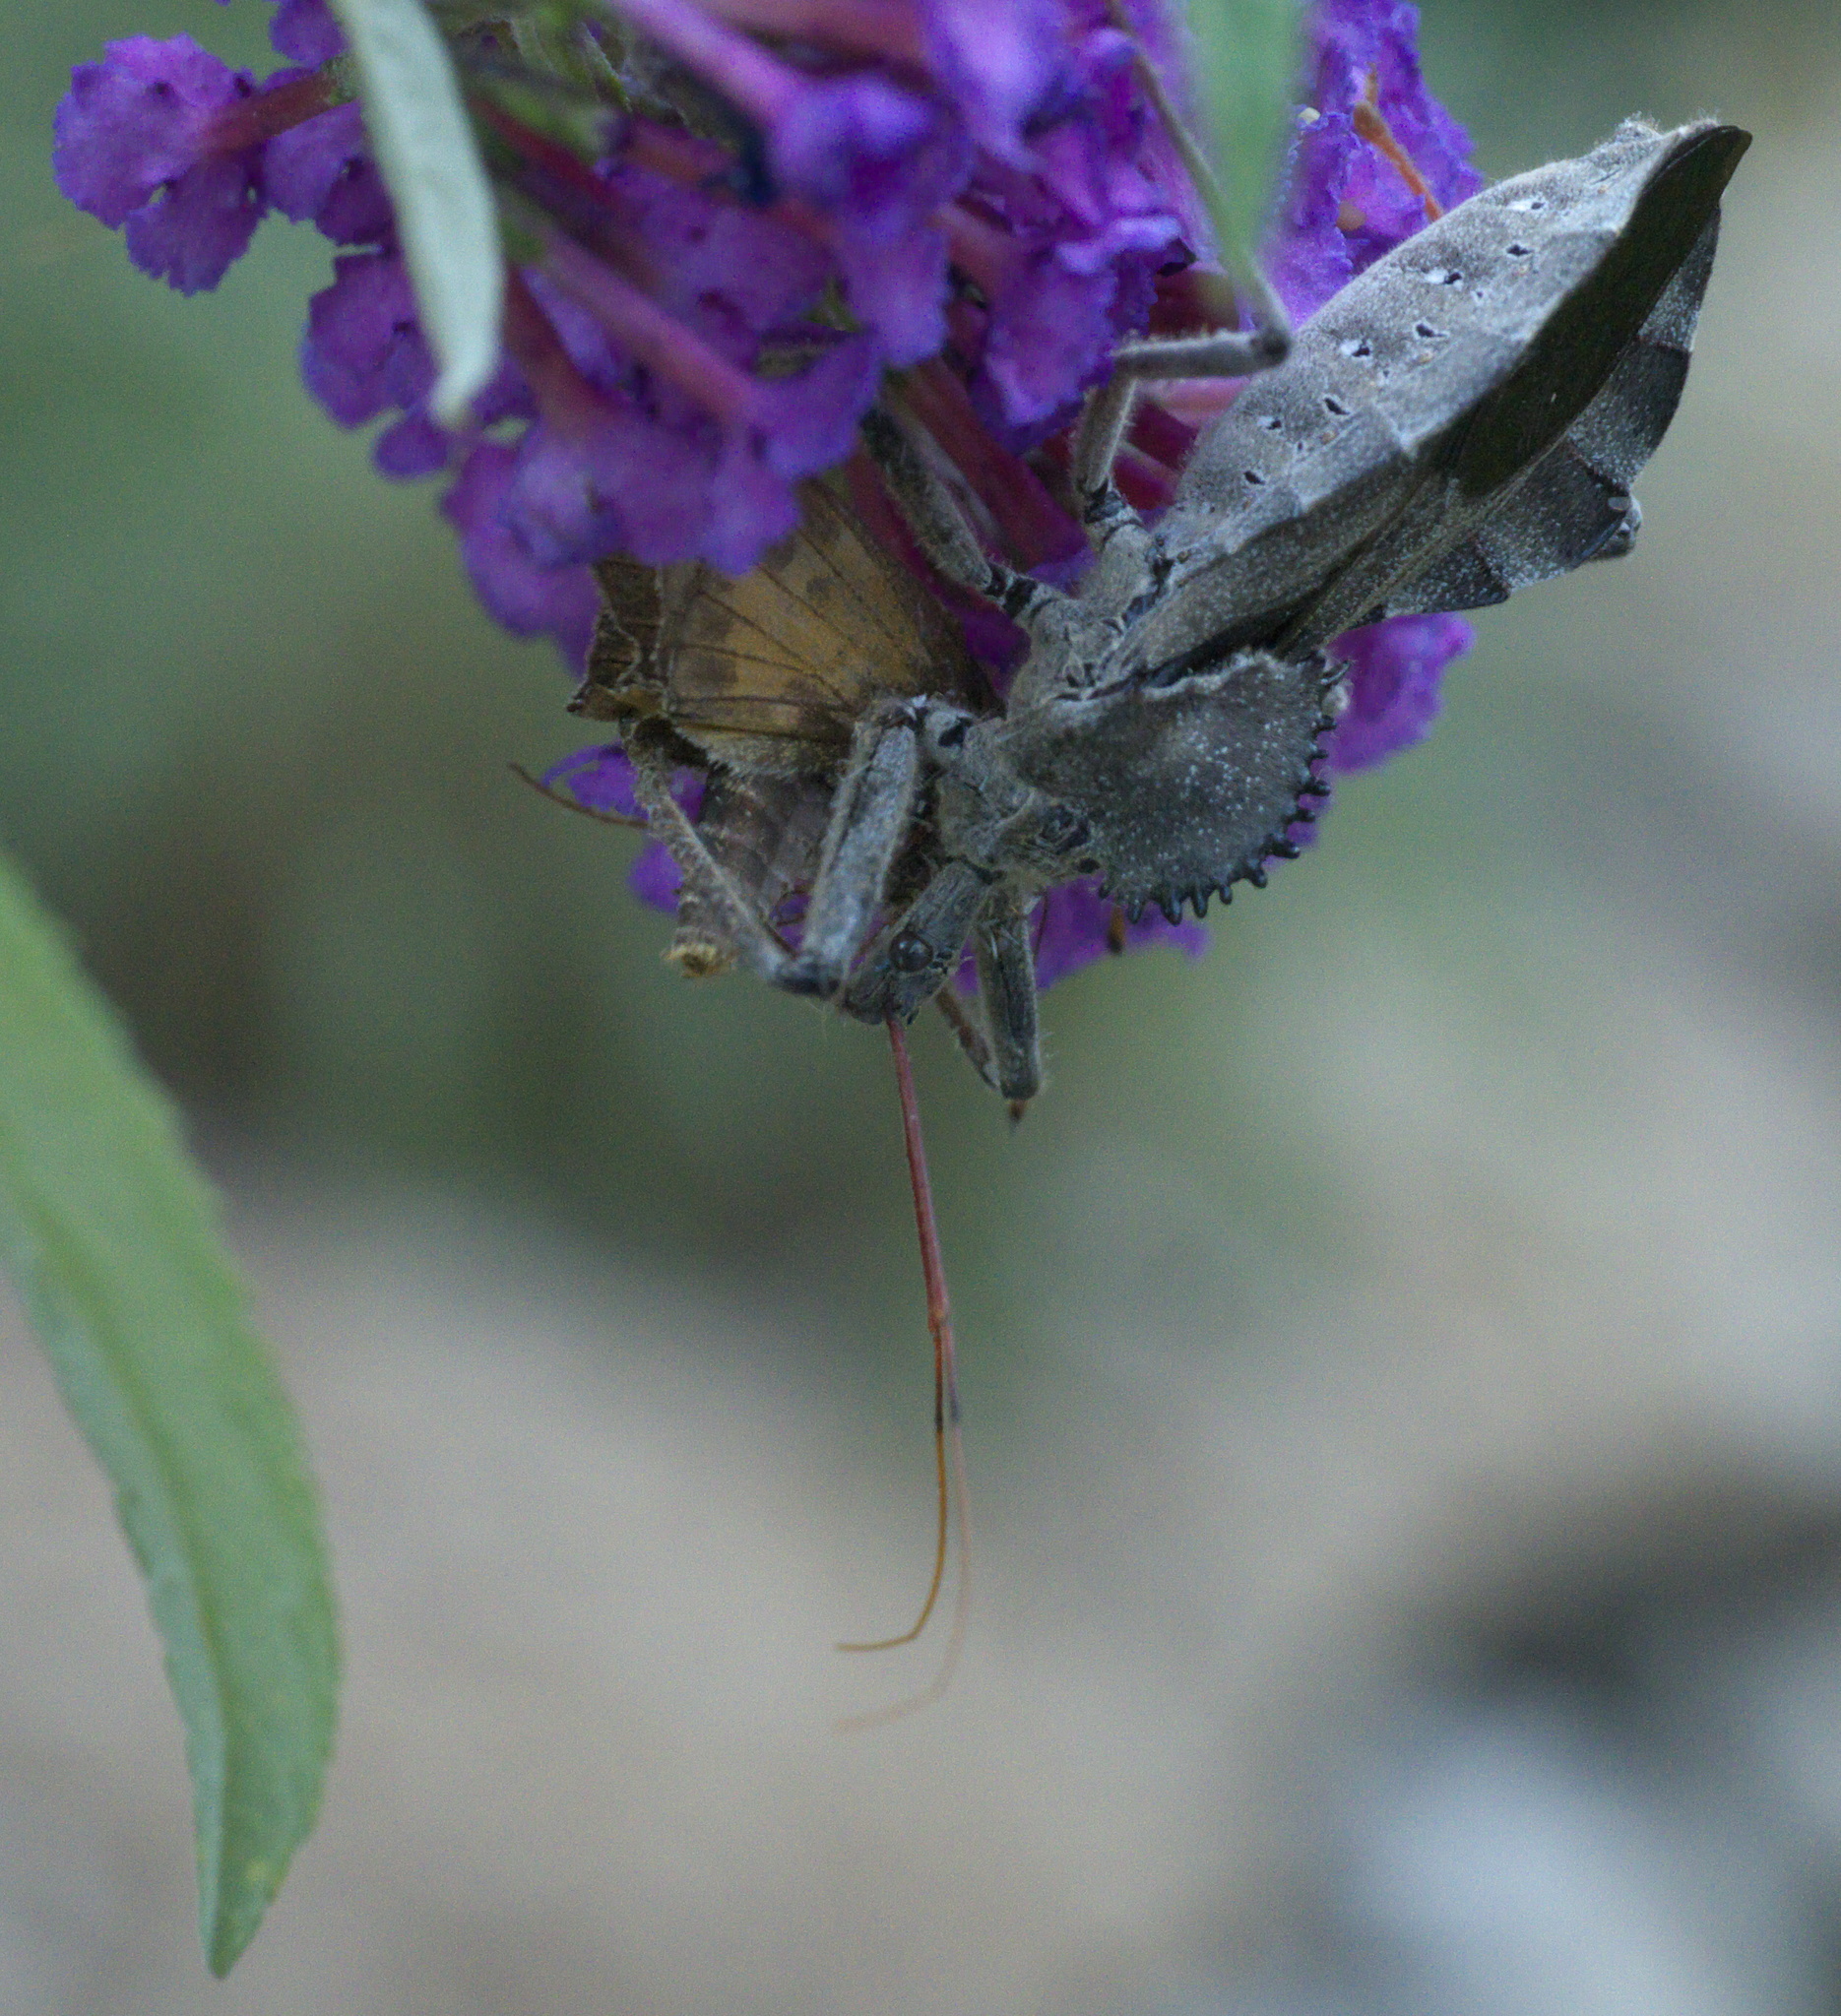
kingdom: Animalia
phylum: Arthropoda
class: Insecta
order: Hemiptera
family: Reduviidae
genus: Arilus
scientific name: Arilus cristatus
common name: North american wheel bug
